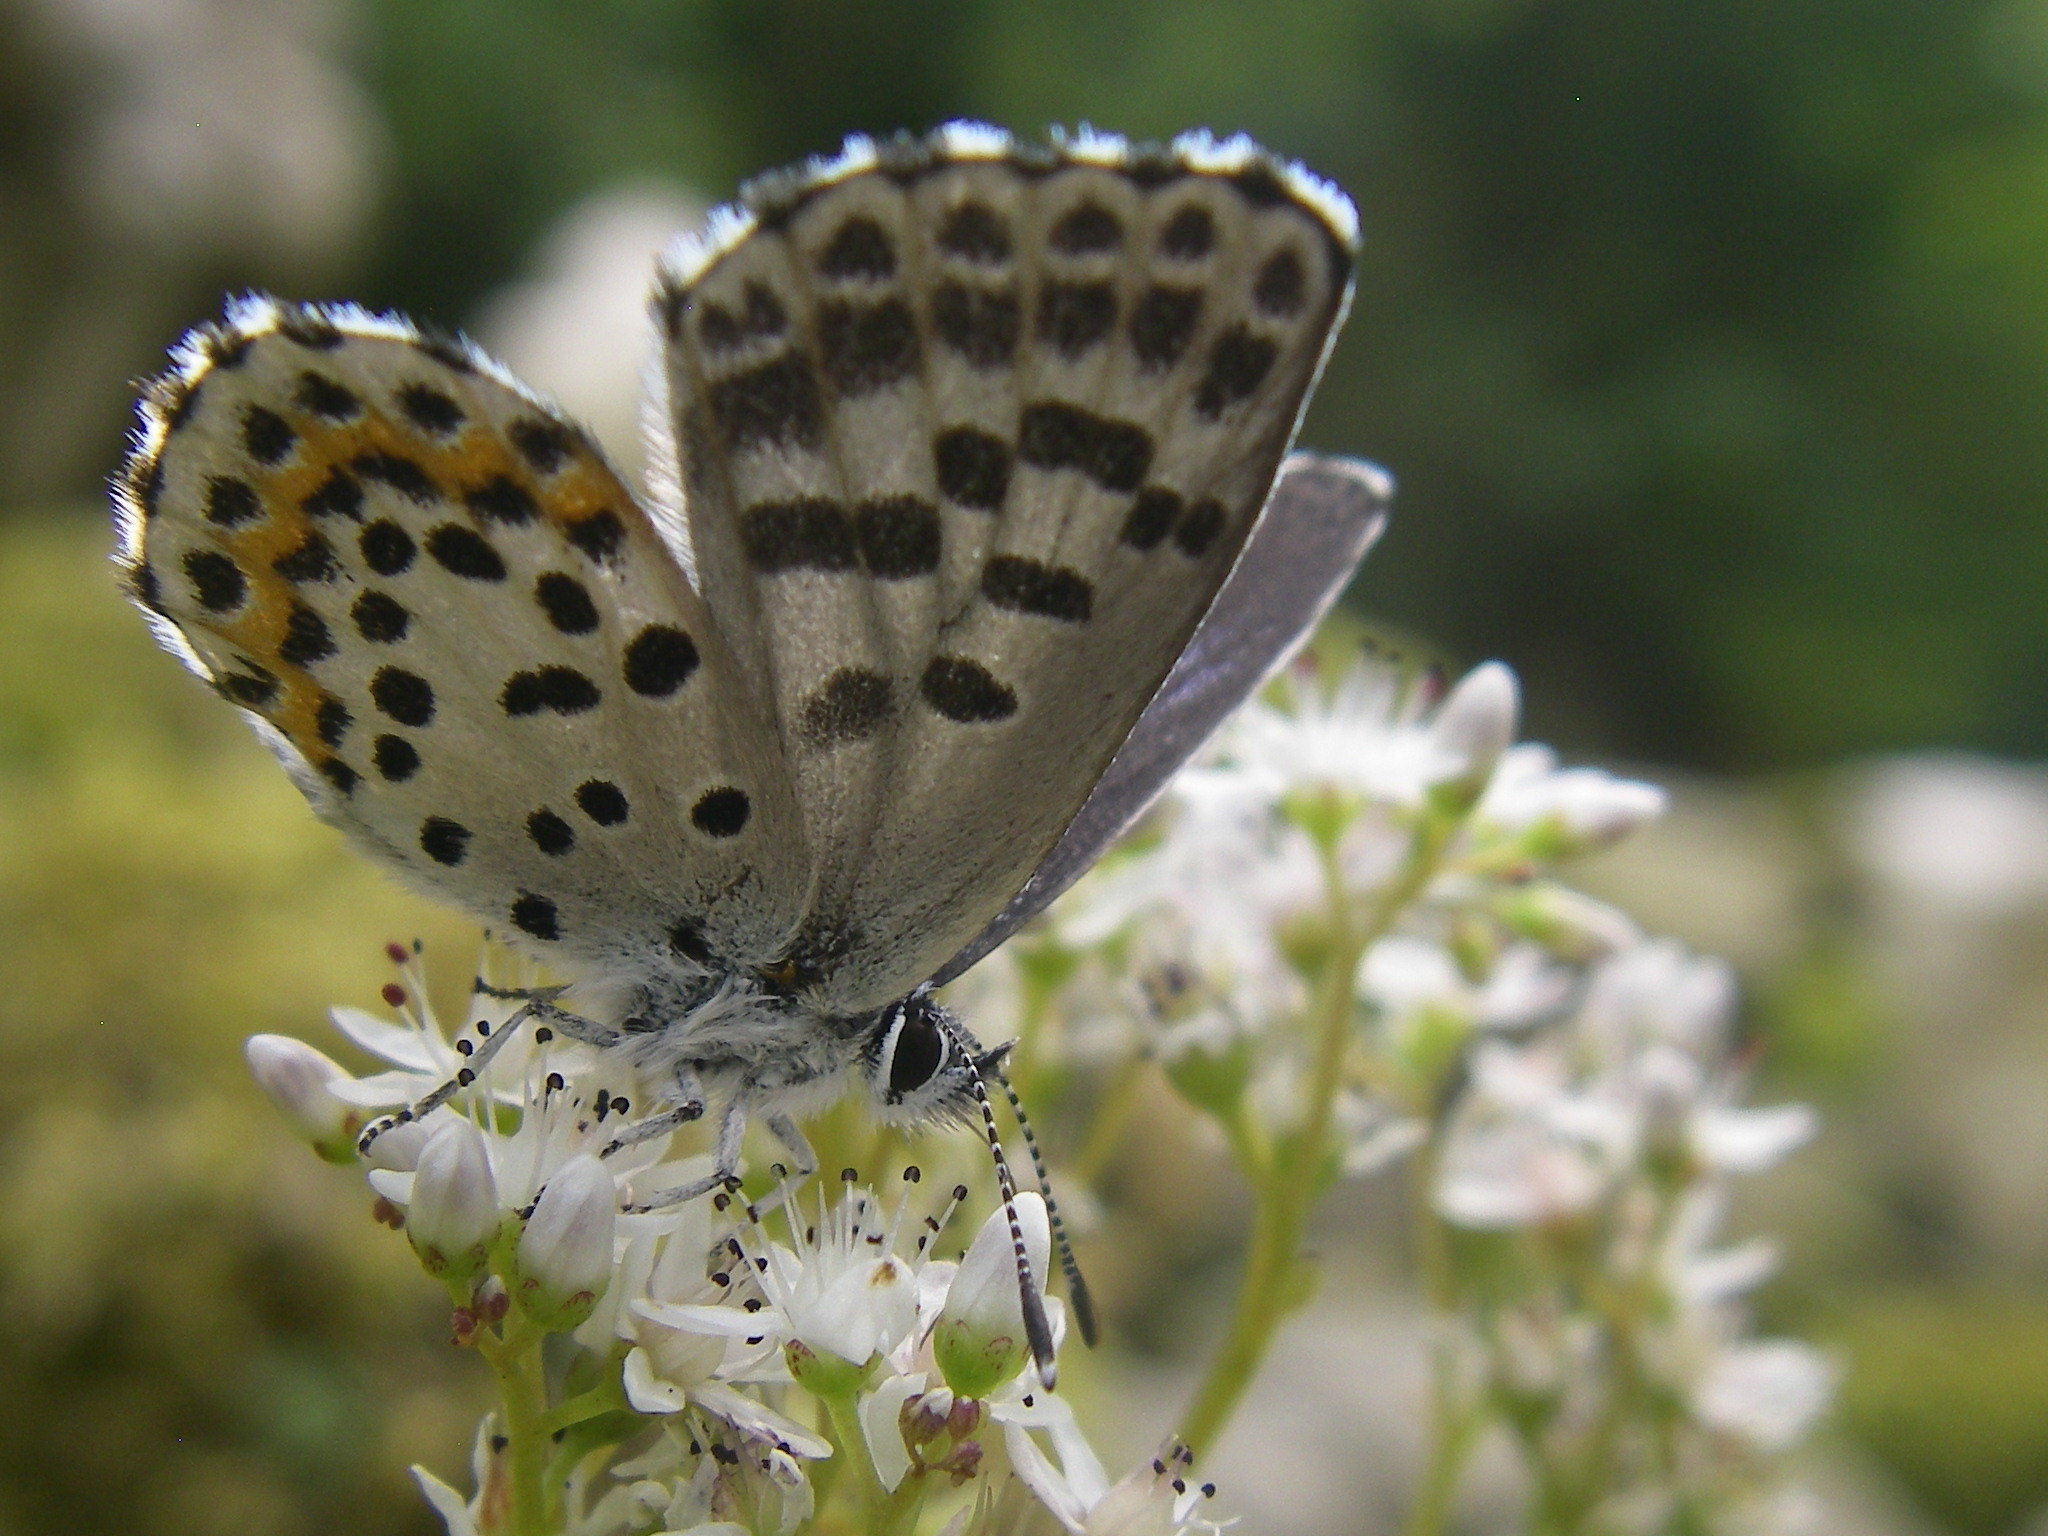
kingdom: Animalia
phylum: Arthropoda
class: Insecta
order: Lepidoptera
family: Lycaenidae
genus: Scolitantides
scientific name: Scolitantides orion
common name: Chequered blue
